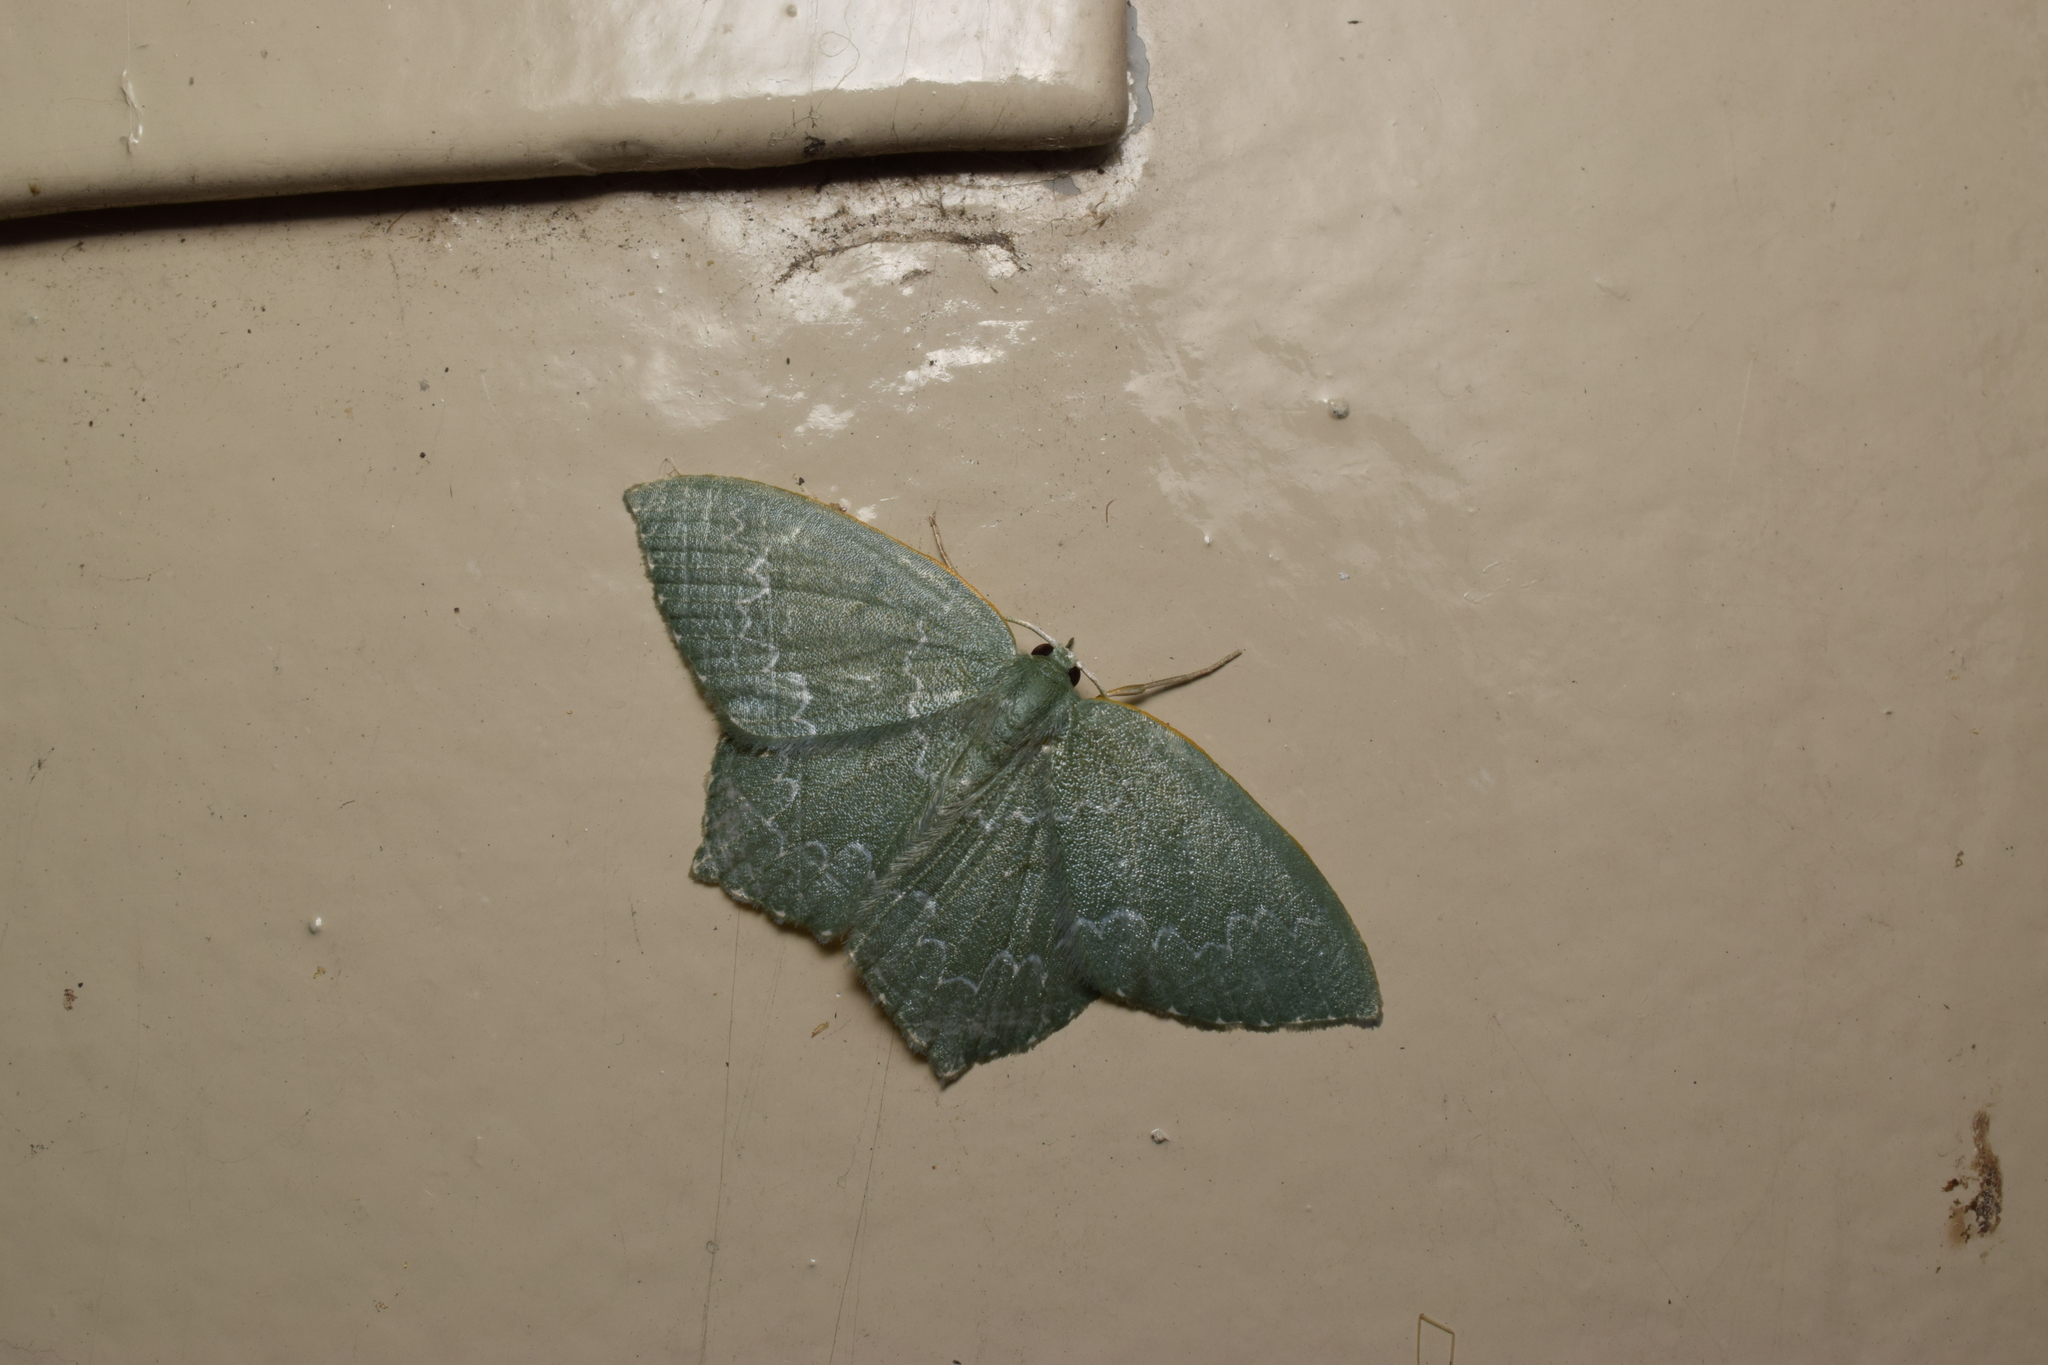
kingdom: Animalia
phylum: Arthropoda
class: Insecta
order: Lepidoptera
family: Geometridae
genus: Jodis
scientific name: Jodis urosticta
